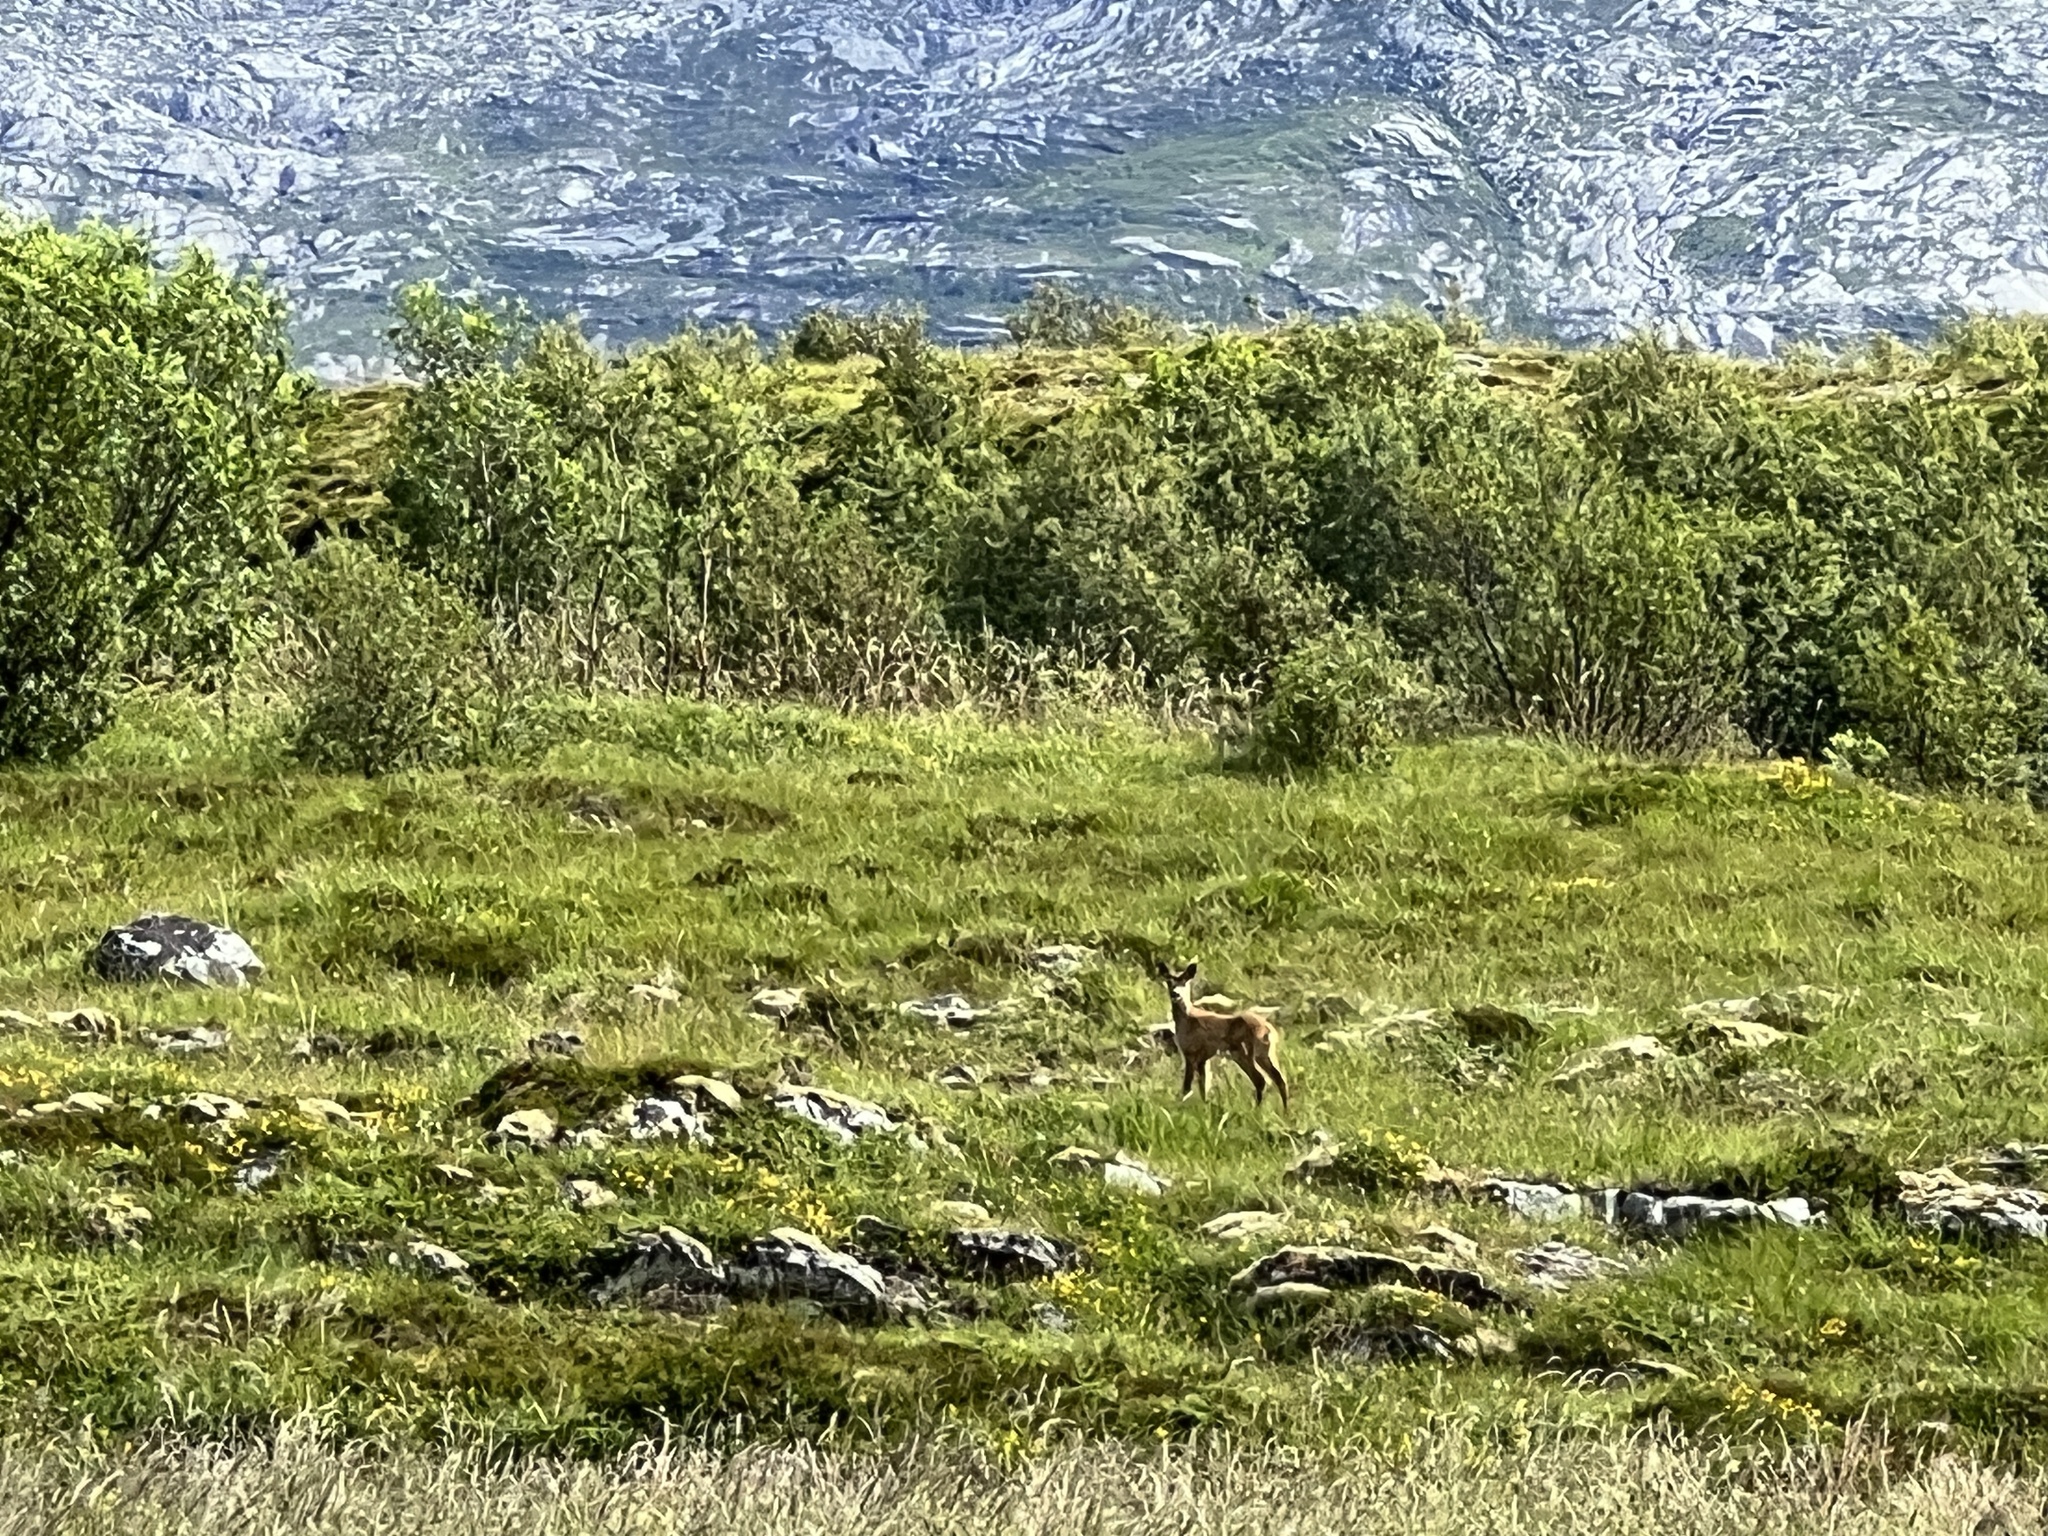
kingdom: Animalia
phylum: Chordata
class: Mammalia
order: Artiodactyla
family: Cervidae
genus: Capreolus
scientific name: Capreolus capreolus
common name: Western roe deer
